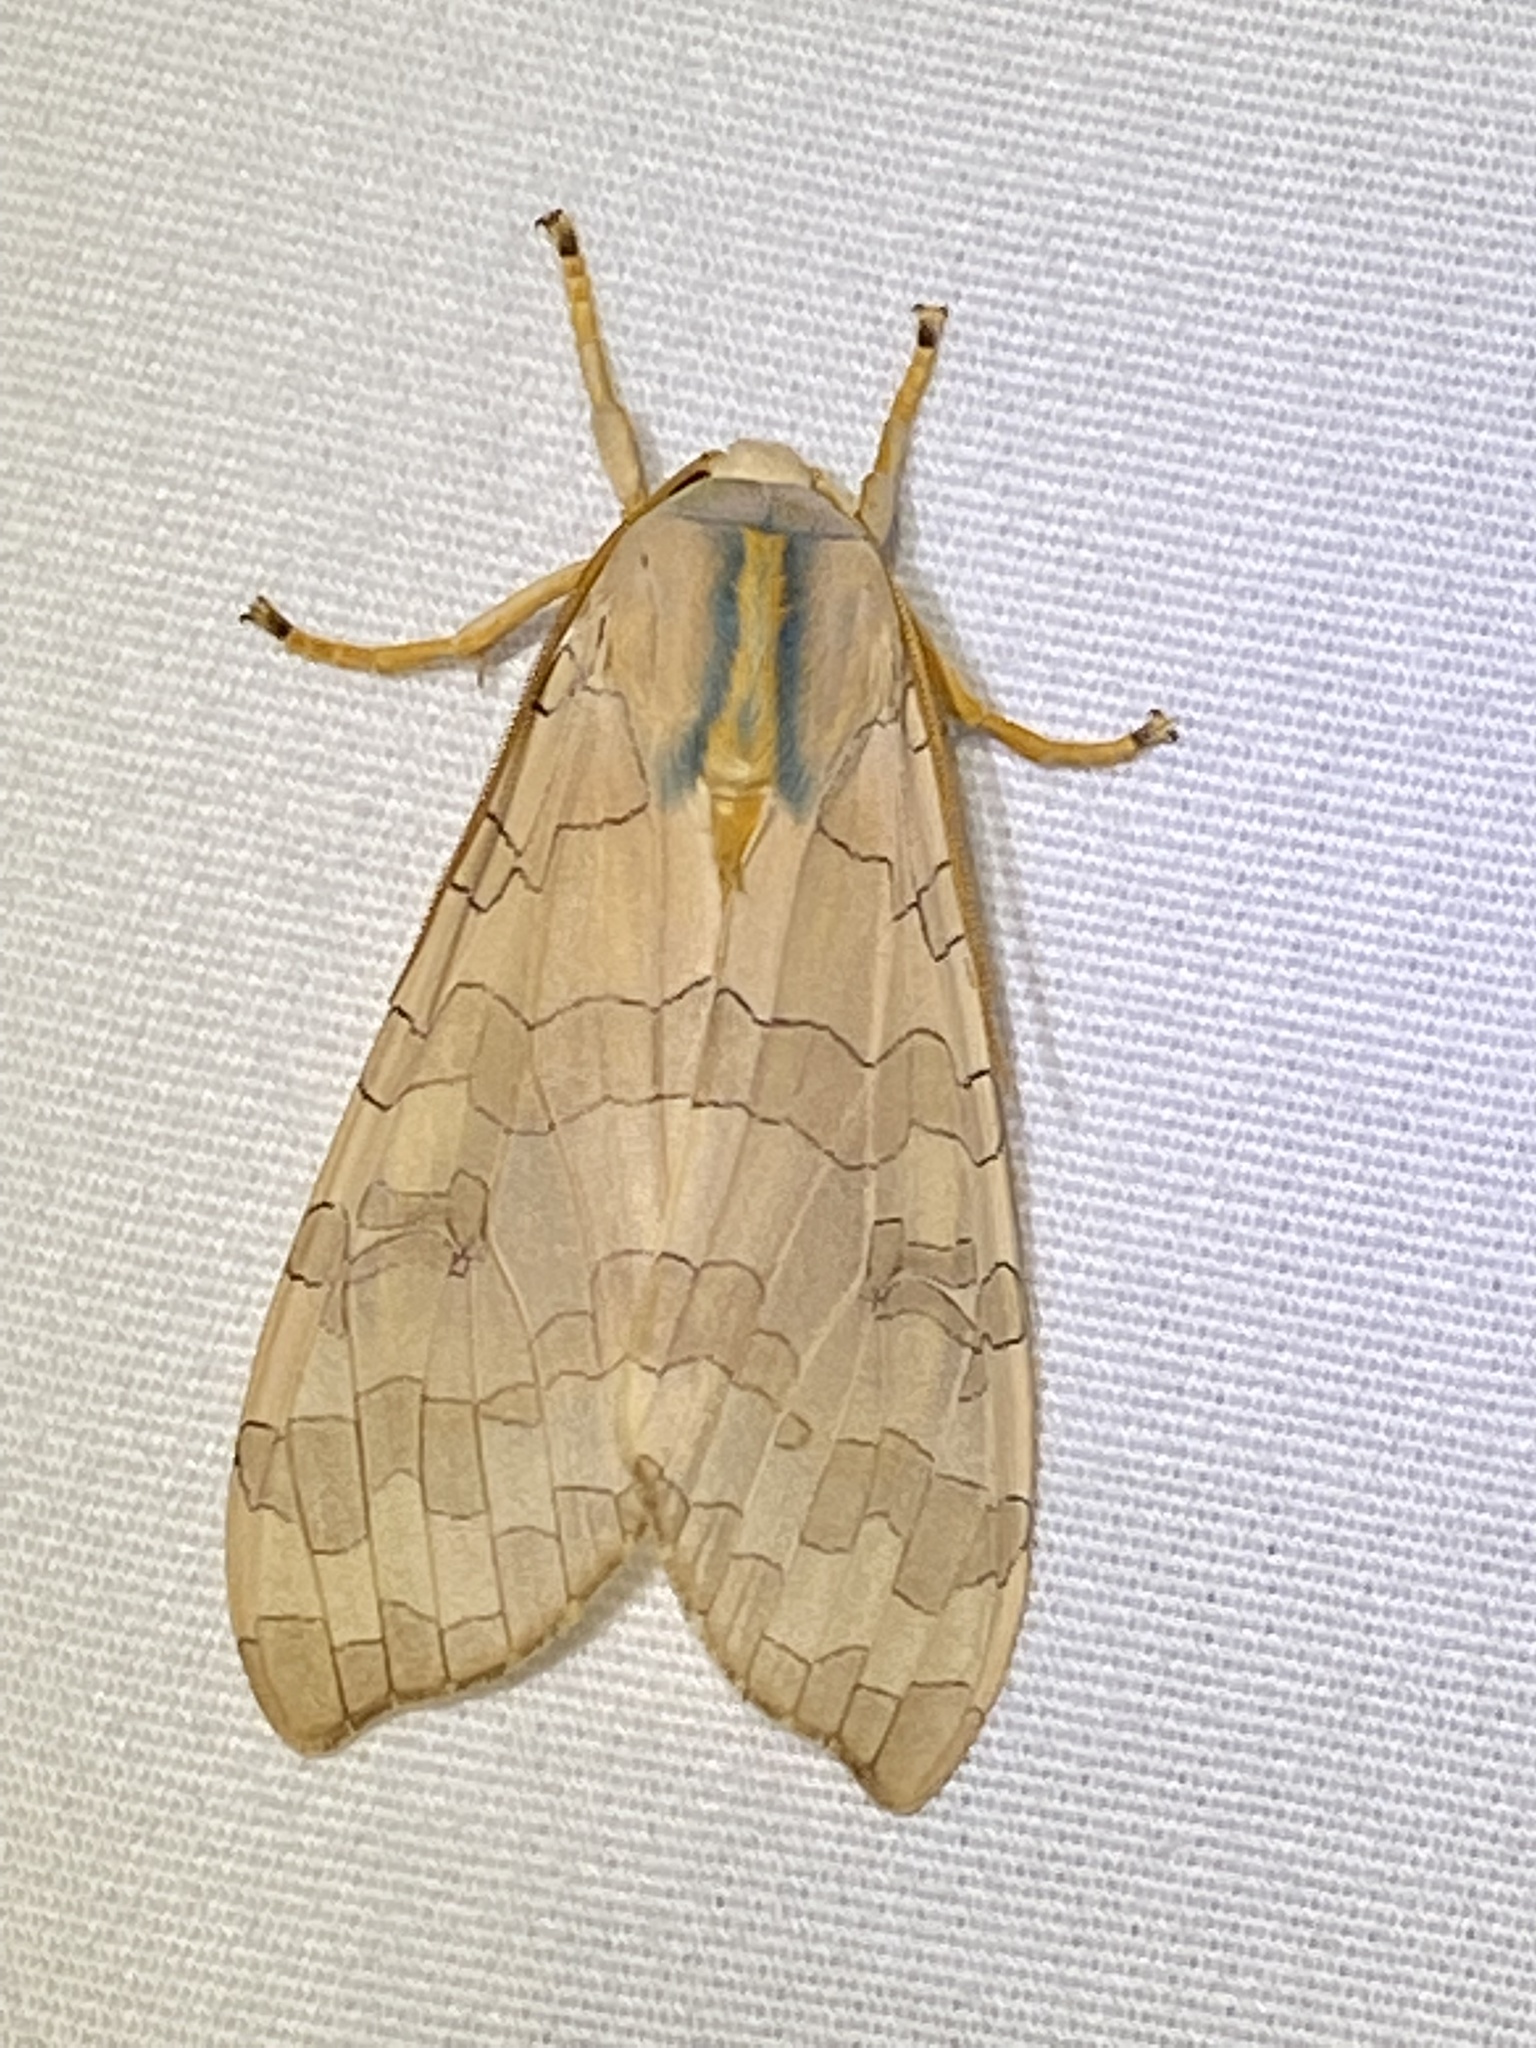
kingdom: Animalia
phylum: Arthropoda
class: Insecta
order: Lepidoptera
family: Erebidae
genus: Halysidota
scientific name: Halysidota
